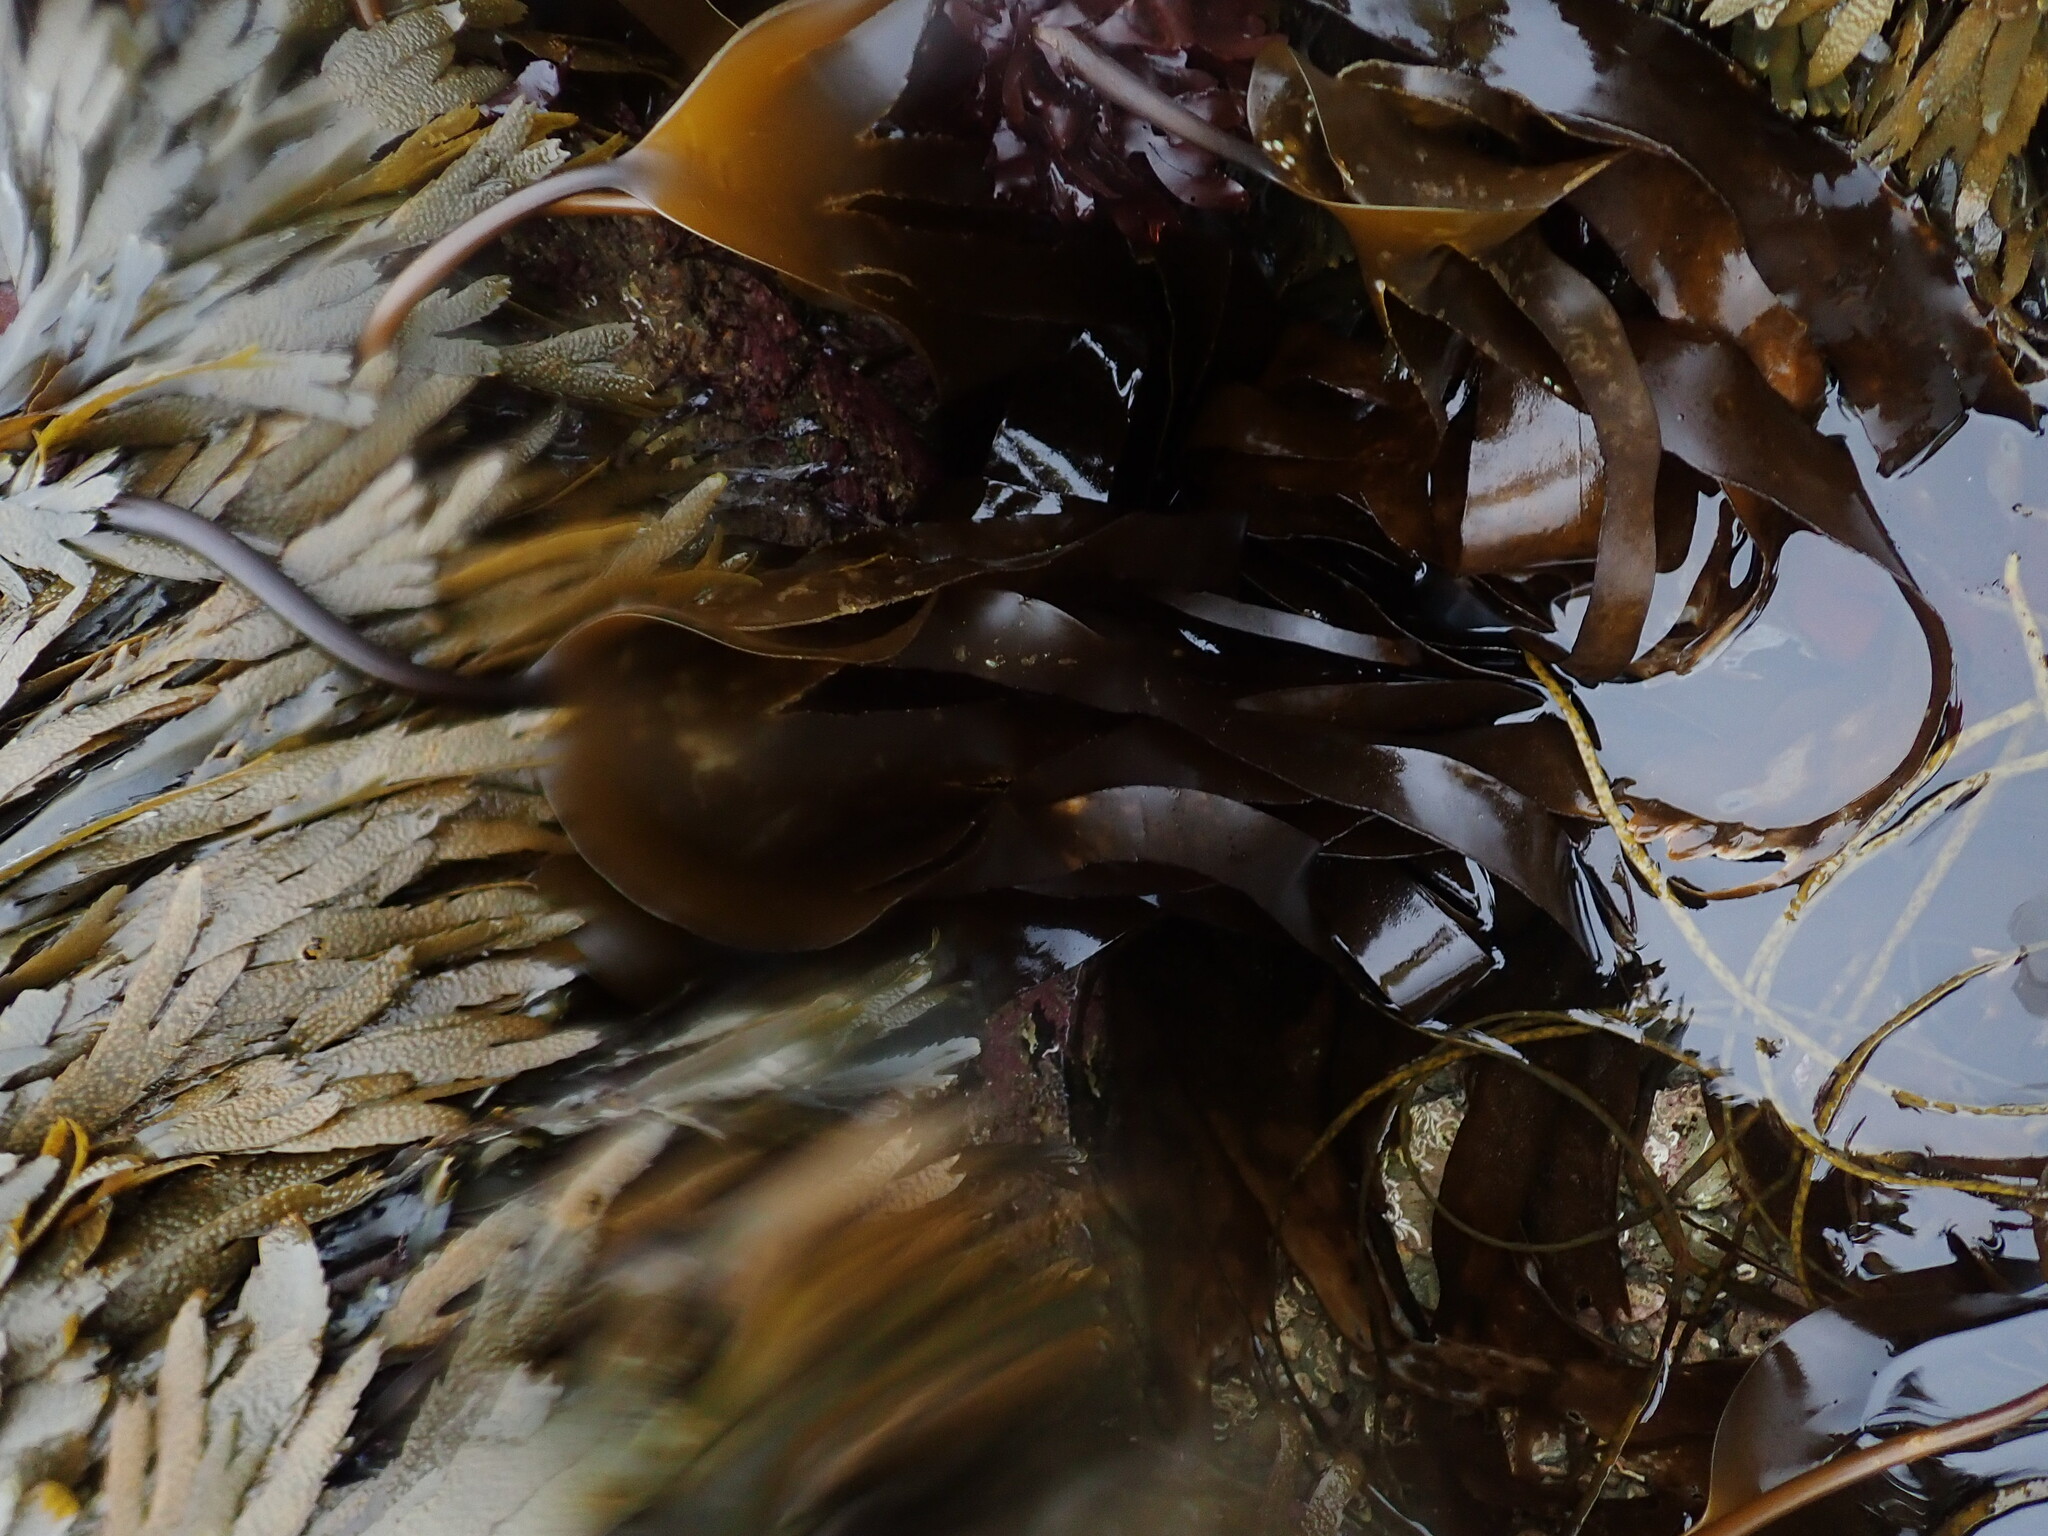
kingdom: Chromista
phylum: Ochrophyta
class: Phaeophyceae
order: Laminariales
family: Laminariaceae
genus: Laminaria
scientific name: Laminaria digitata
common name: Oarweed
